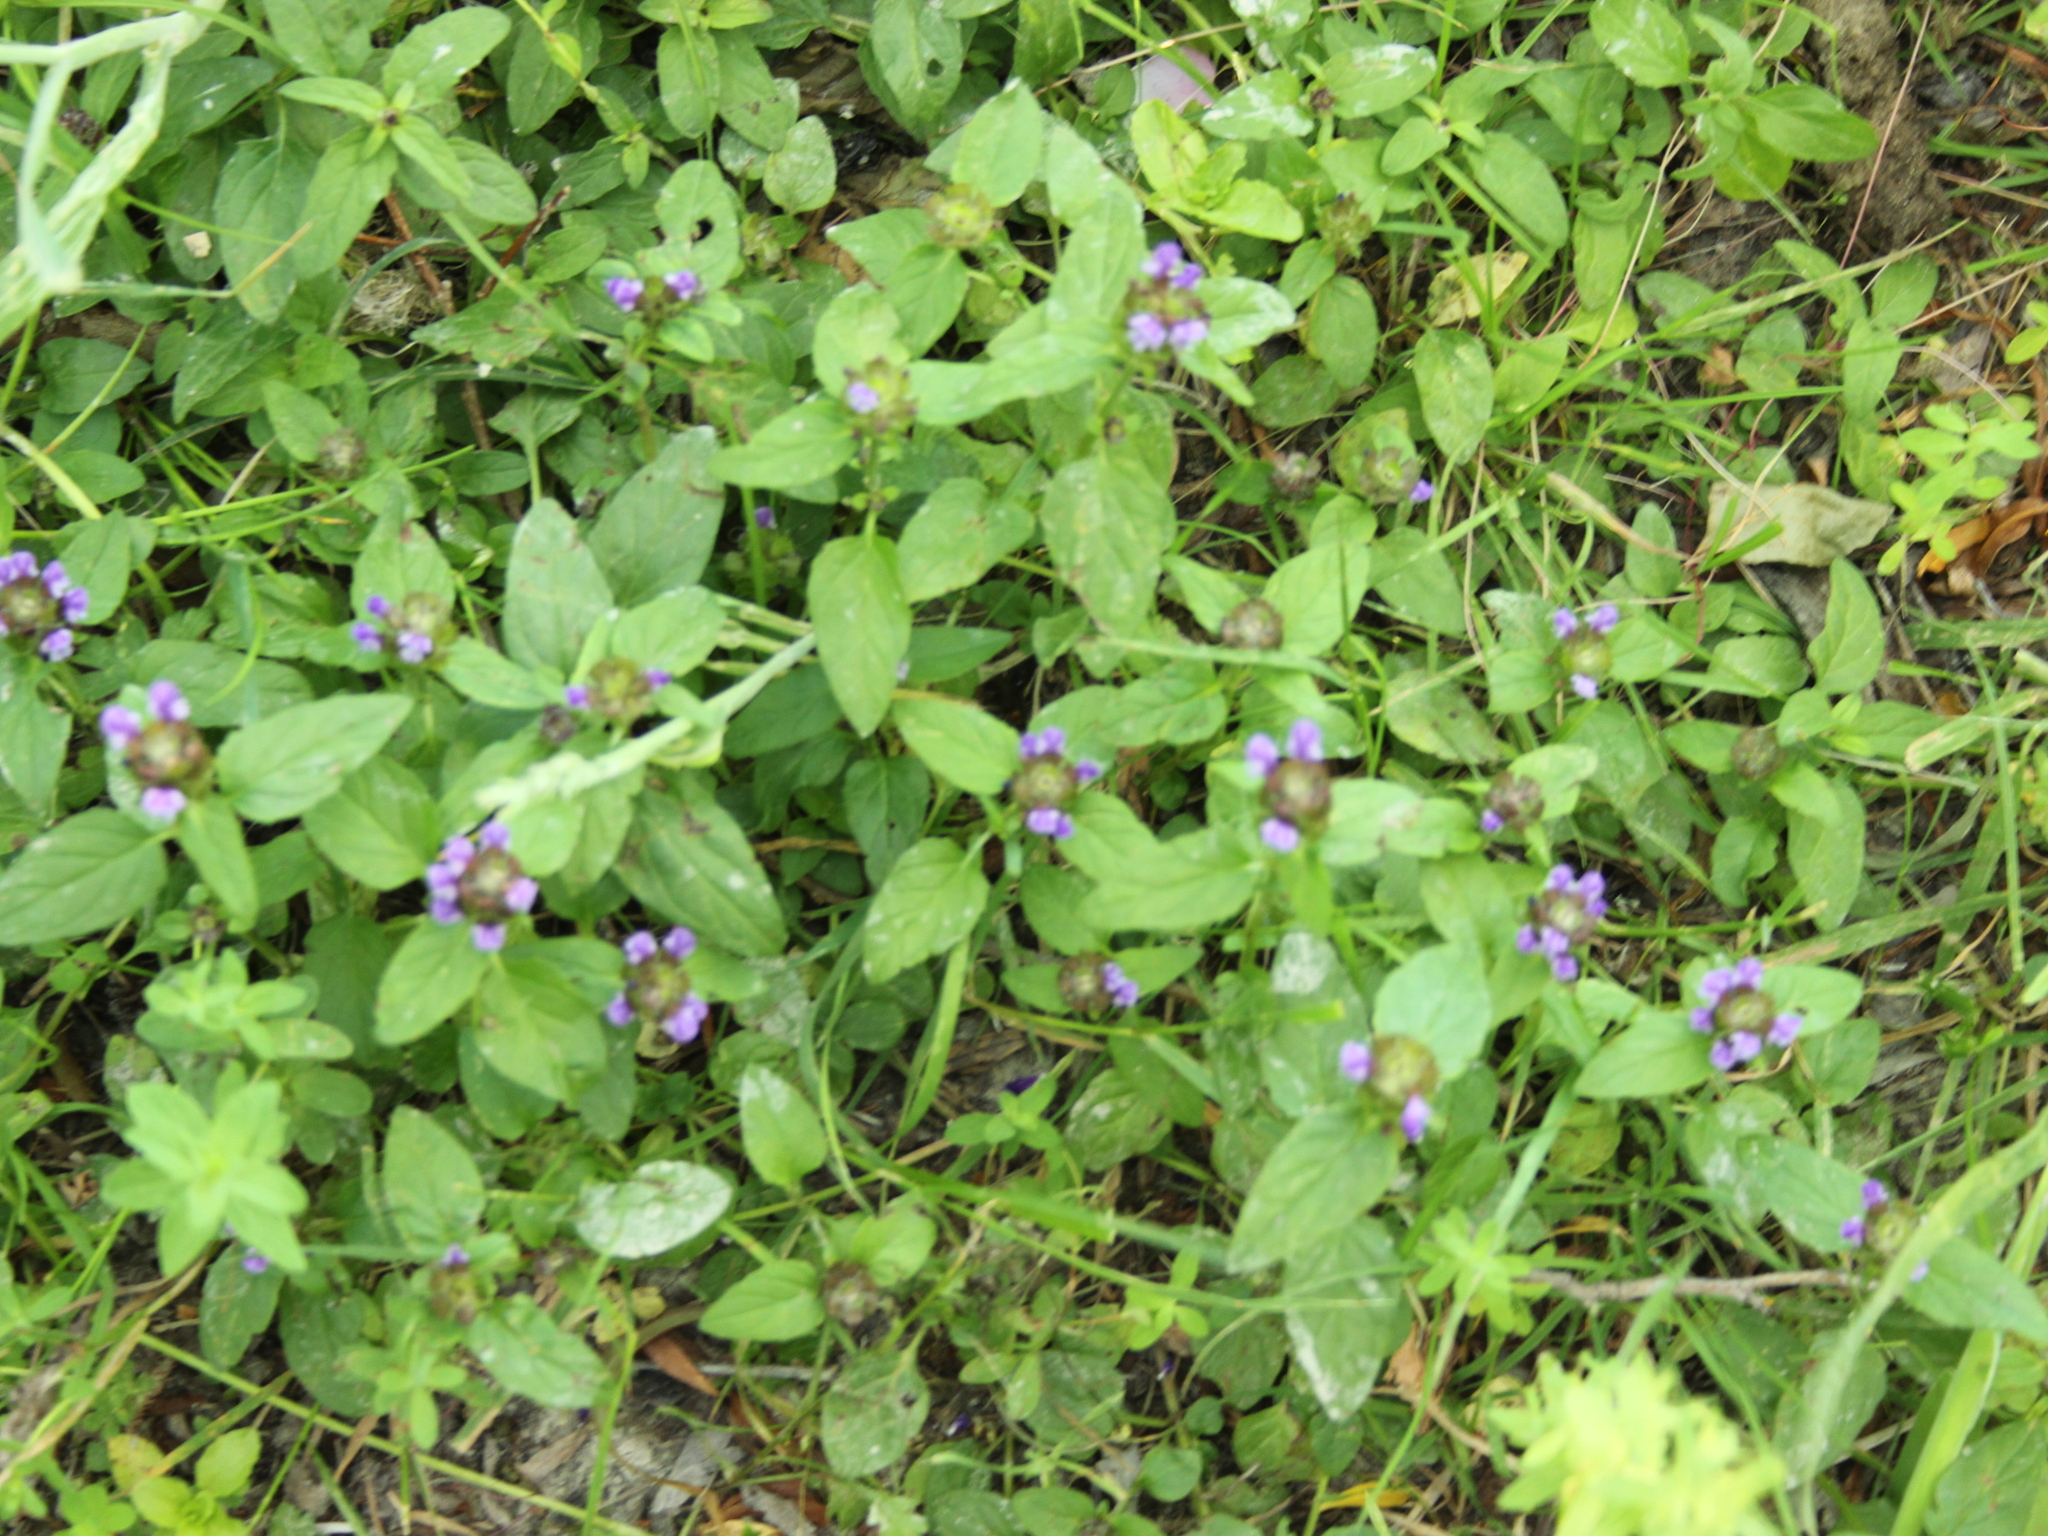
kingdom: Plantae
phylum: Tracheophyta
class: Magnoliopsida
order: Lamiales
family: Lamiaceae
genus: Prunella
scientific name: Prunella vulgaris
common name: Heal-all
